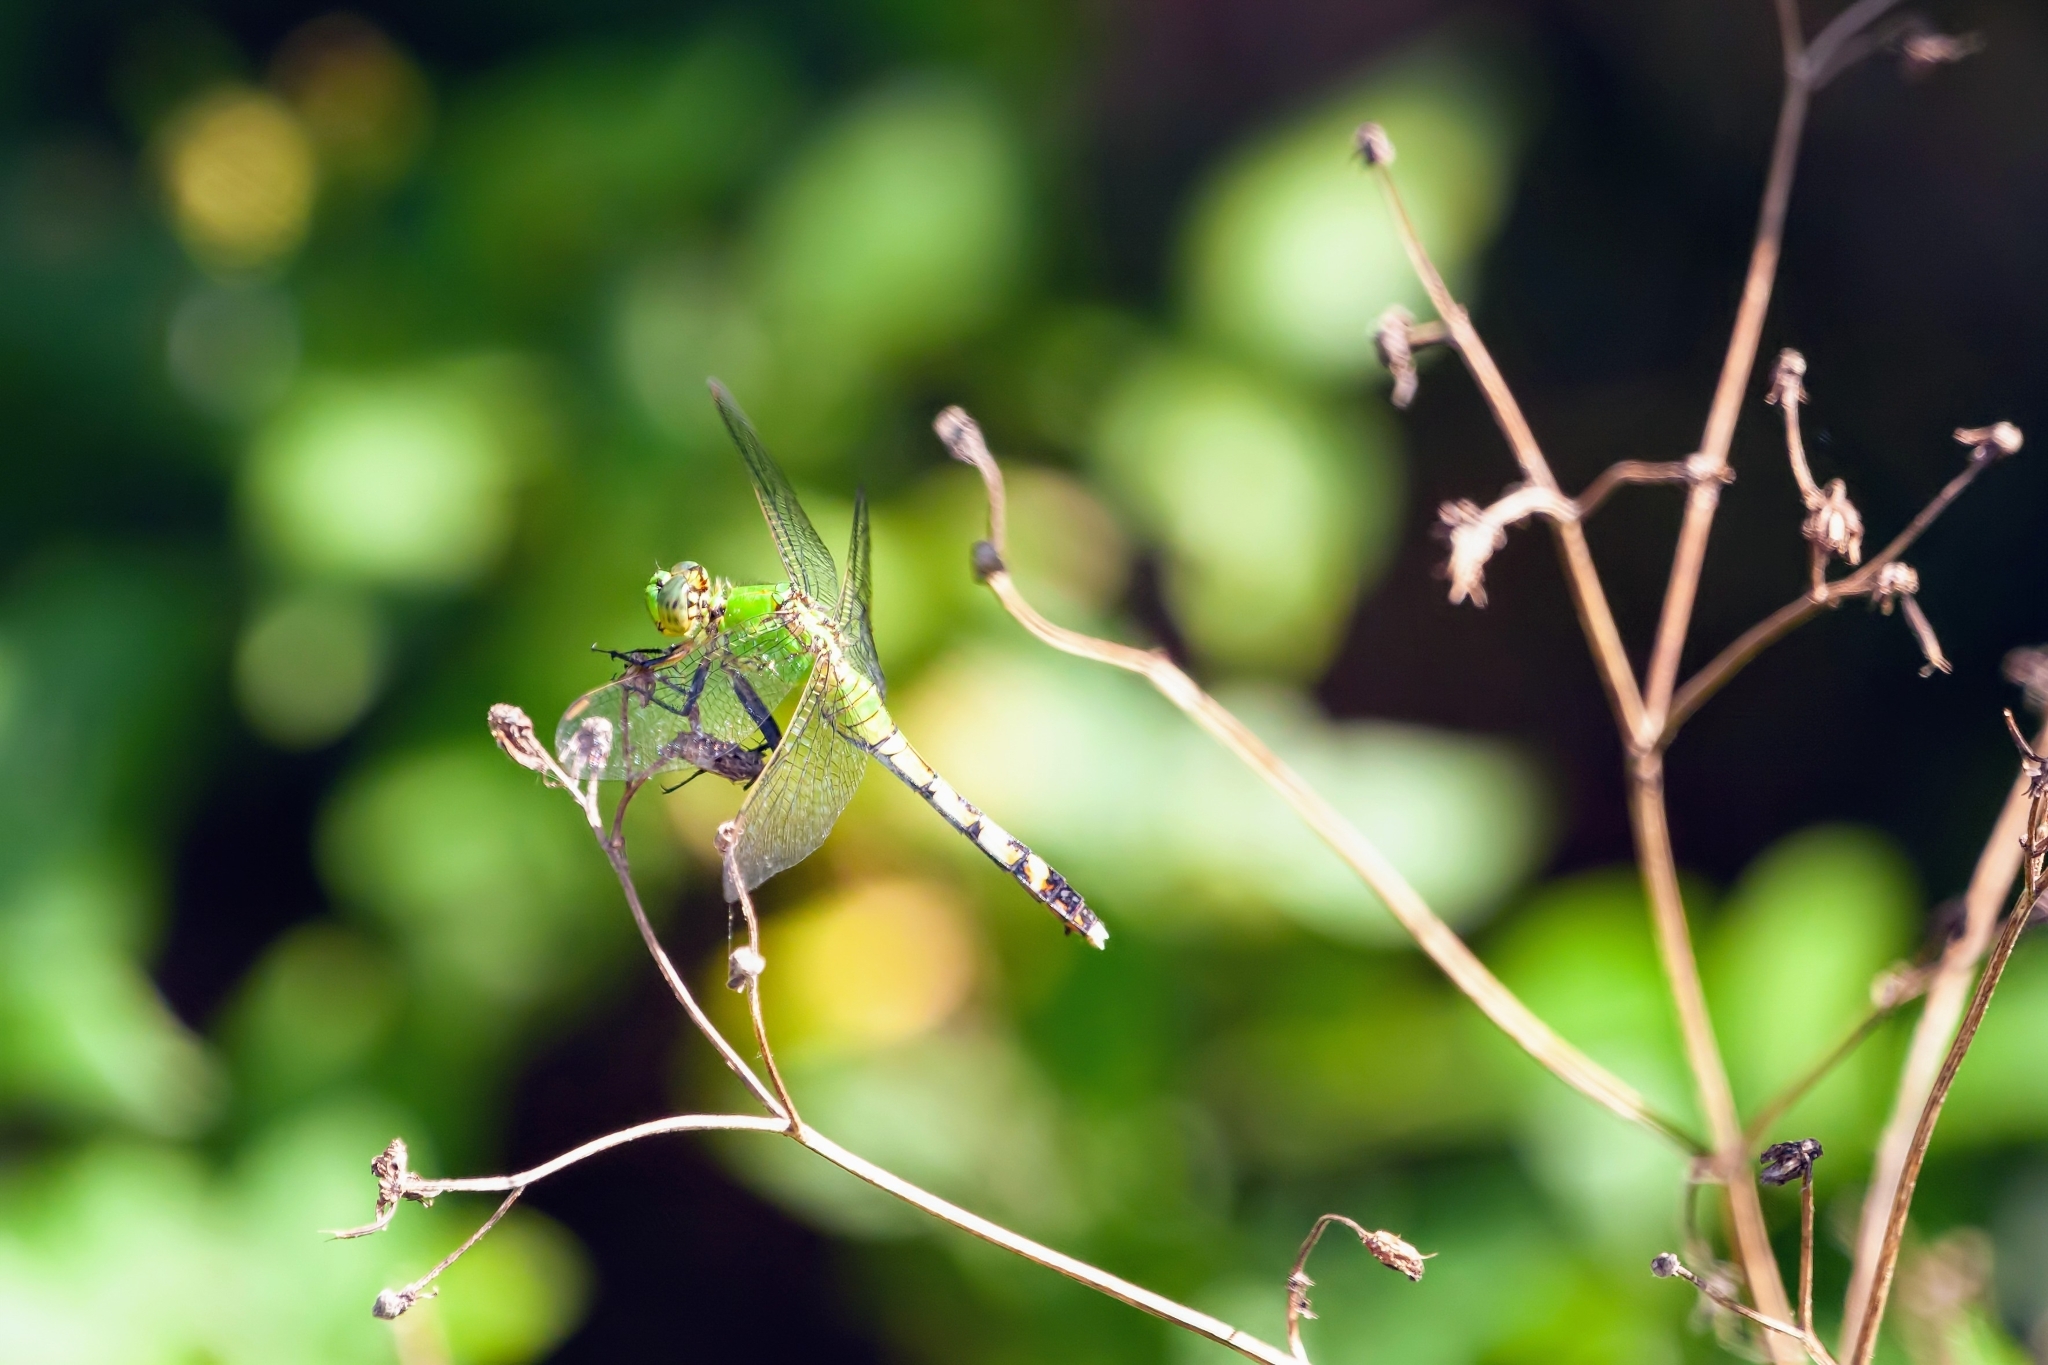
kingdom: Animalia
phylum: Arthropoda
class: Insecta
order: Odonata
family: Libellulidae
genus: Erythemis
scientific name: Erythemis simplicicollis
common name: Eastern pondhawk
